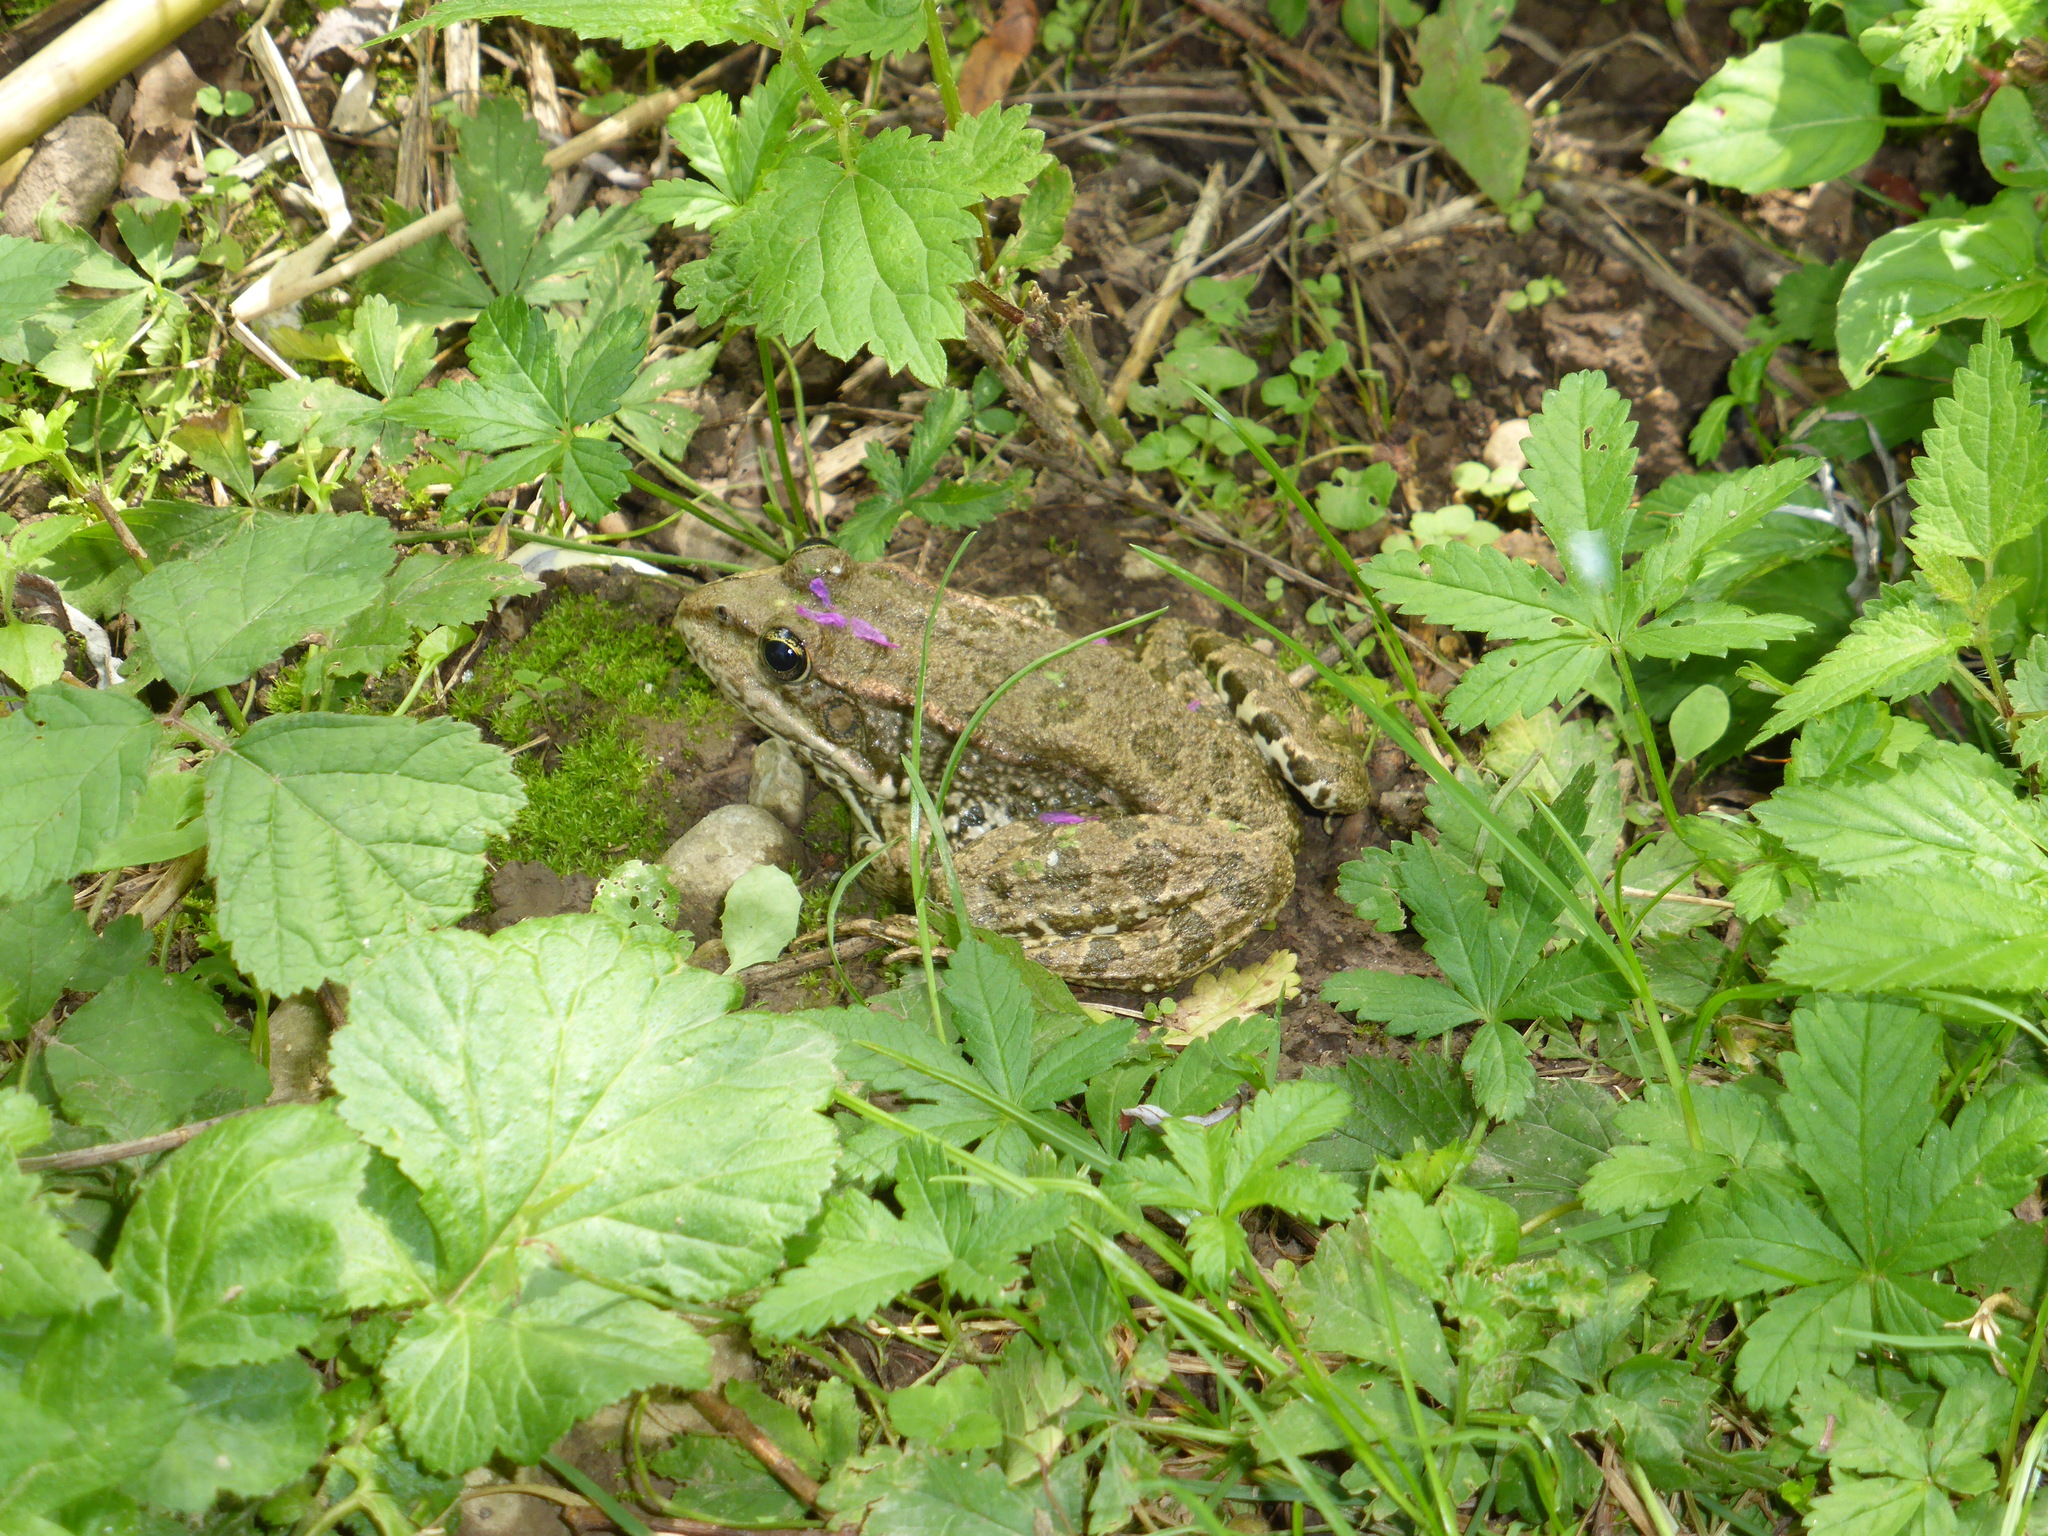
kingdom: Animalia
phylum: Chordata
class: Amphibia
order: Anura
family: Ranidae
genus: Pelophylax
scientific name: Pelophylax
